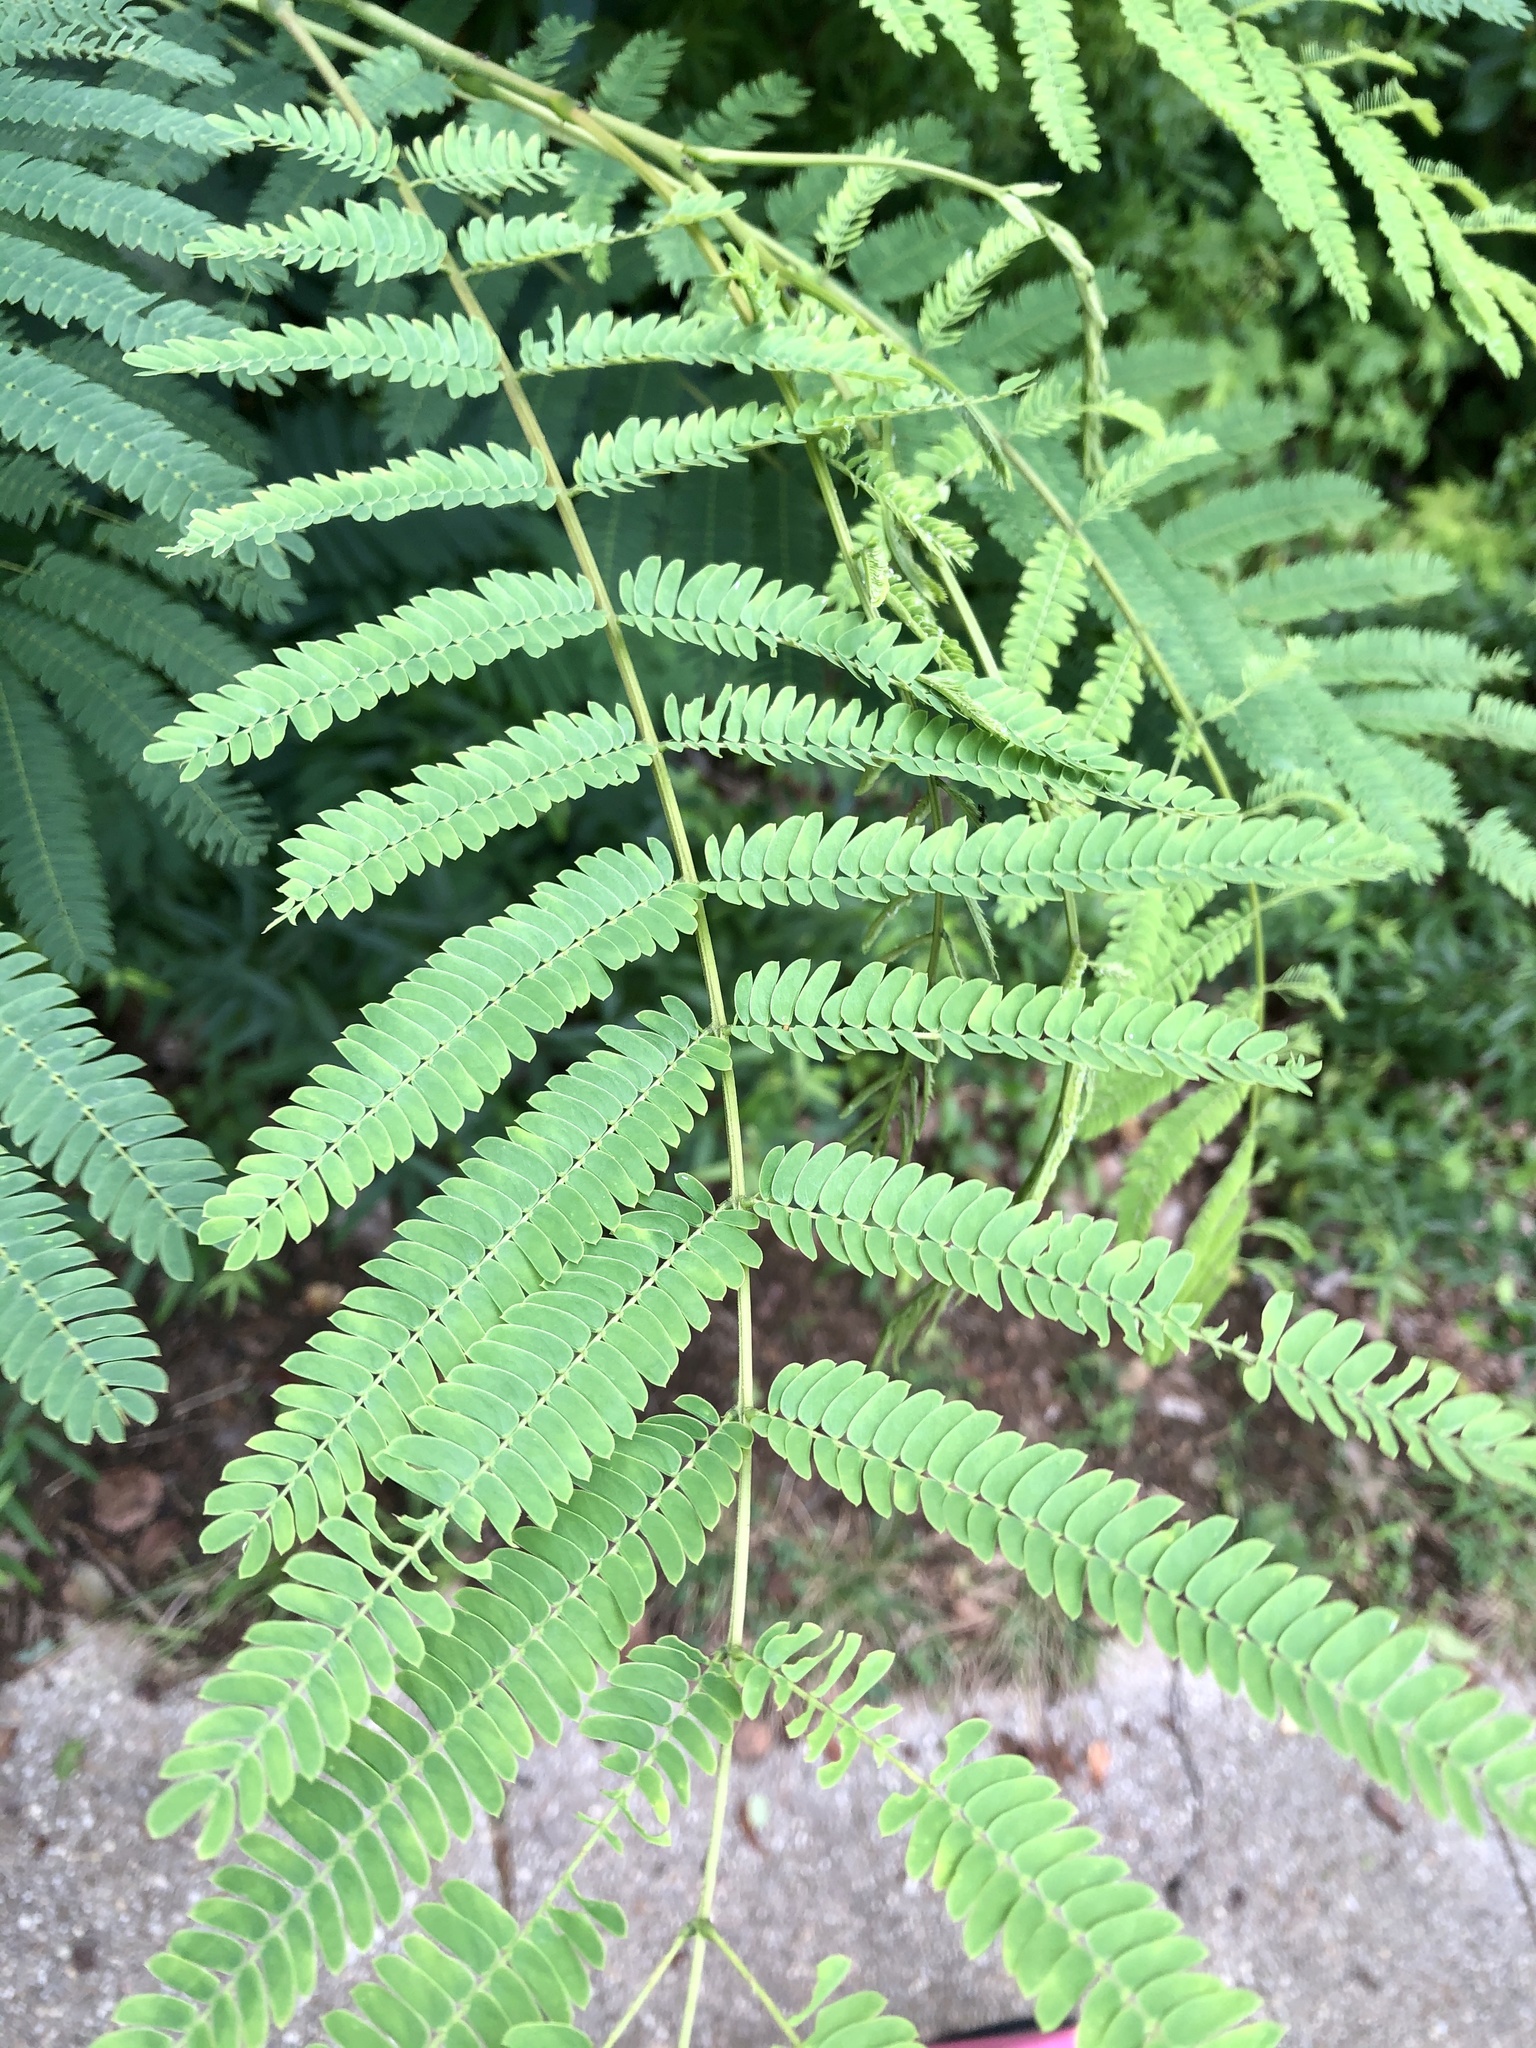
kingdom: Plantae
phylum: Tracheophyta
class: Magnoliopsida
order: Fabales
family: Fabaceae
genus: Albizia
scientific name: Albizia julibrissin
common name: Silktree
